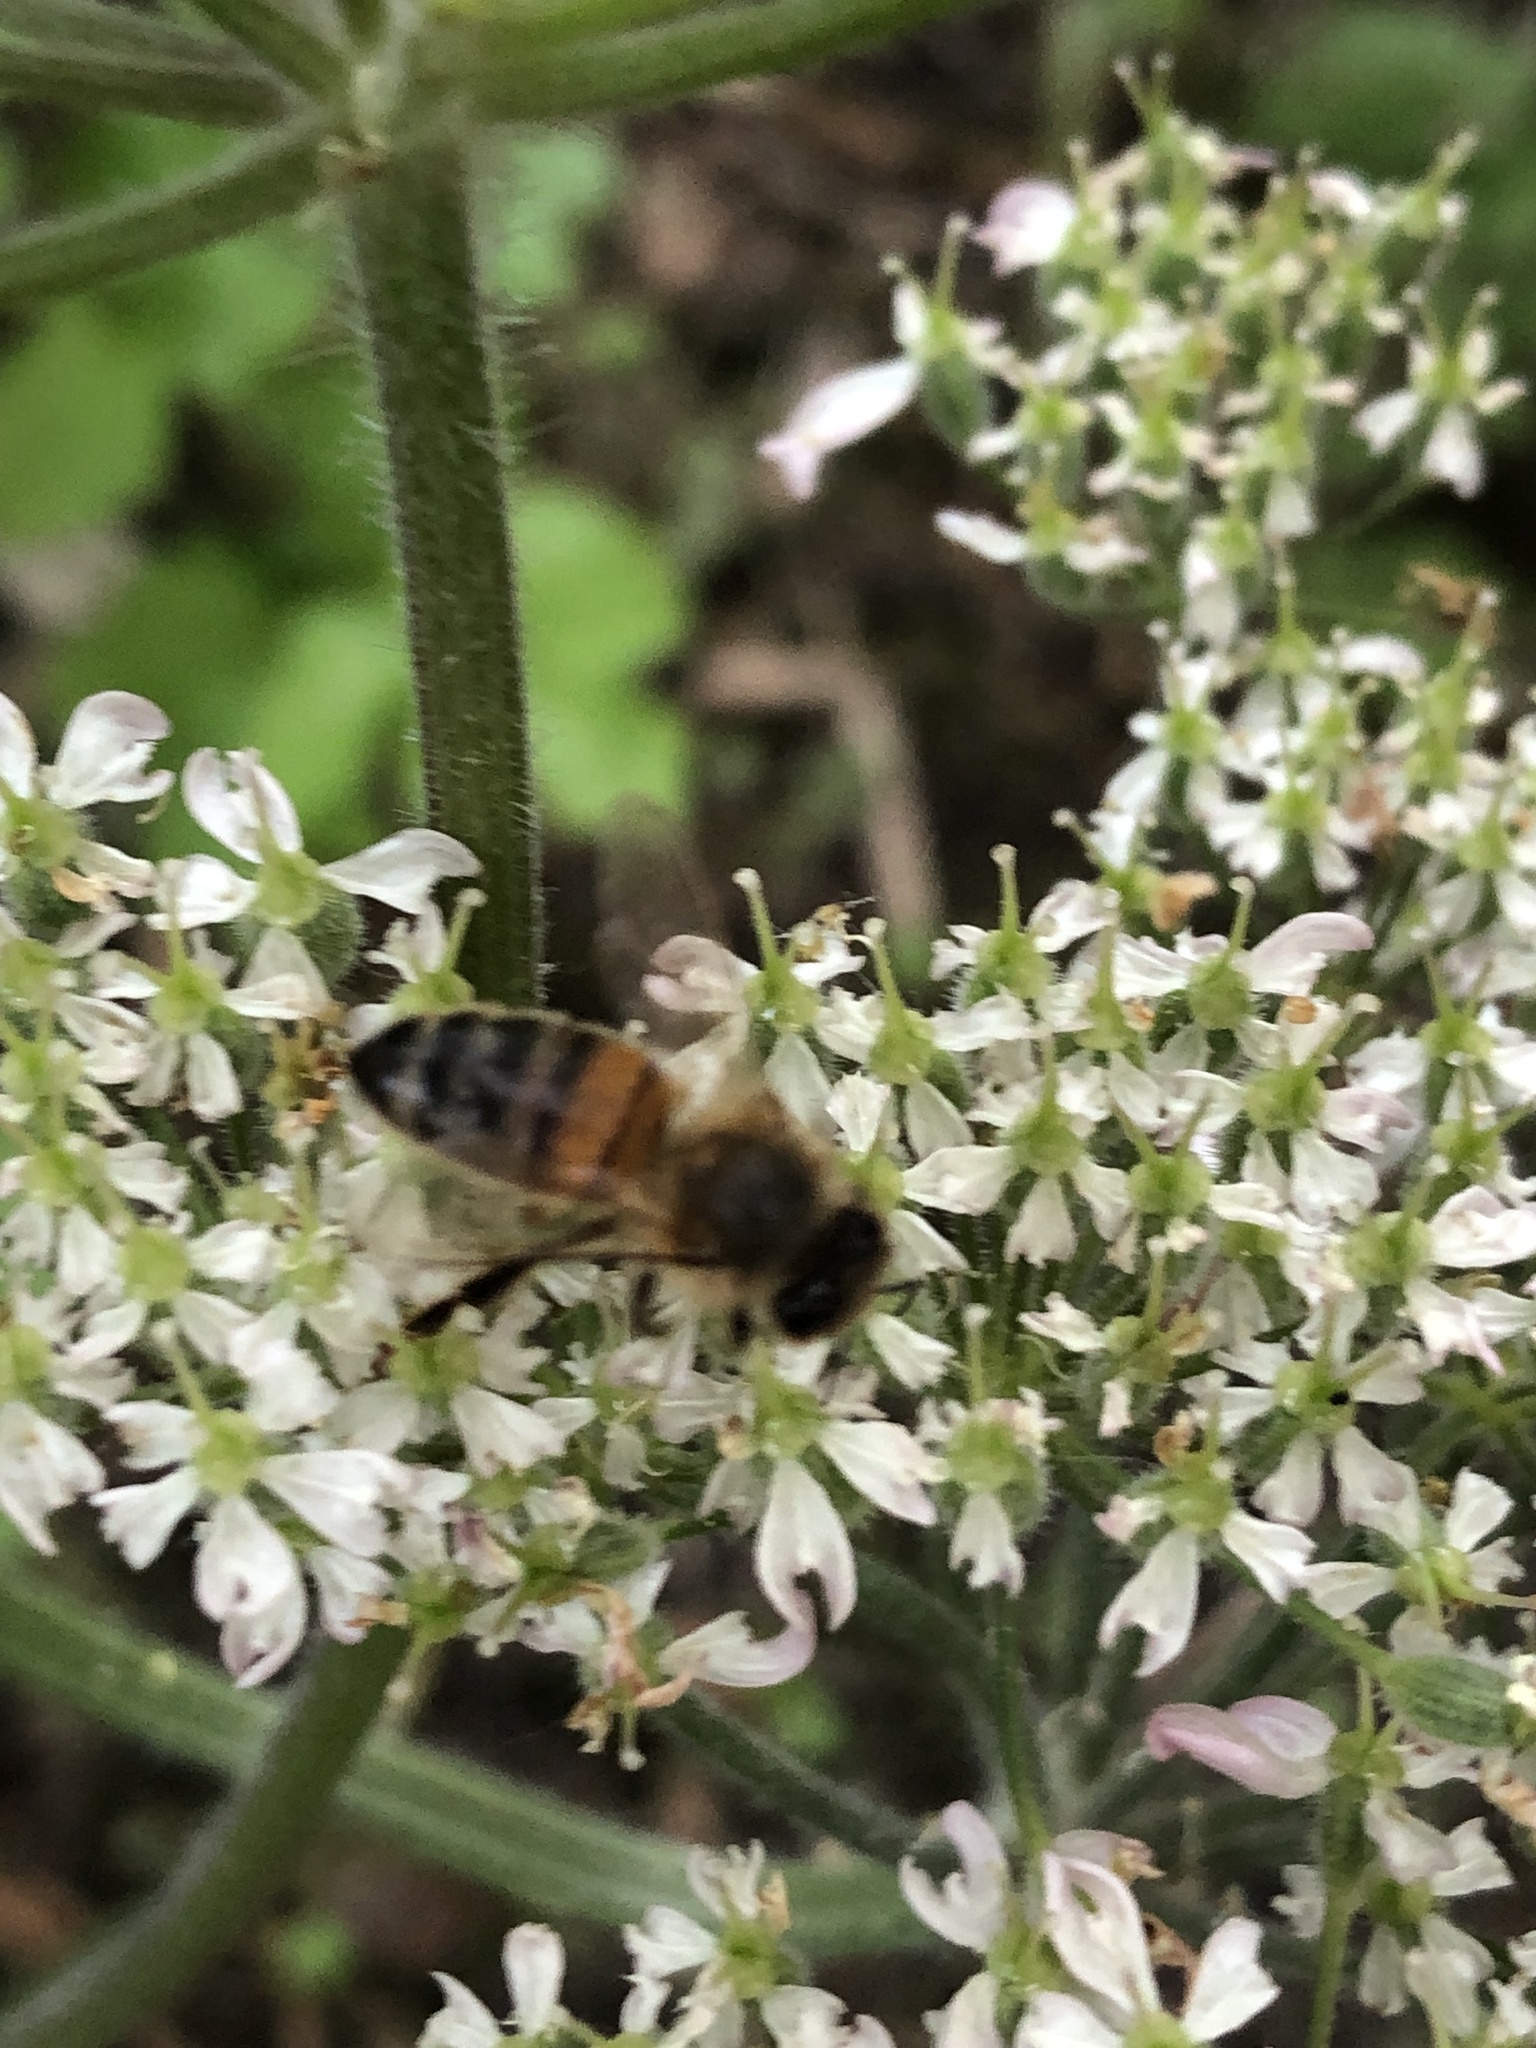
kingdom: Animalia
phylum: Arthropoda
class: Insecta
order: Hymenoptera
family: Apidae
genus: Apis
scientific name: Apis mellifera
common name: Honey bee
